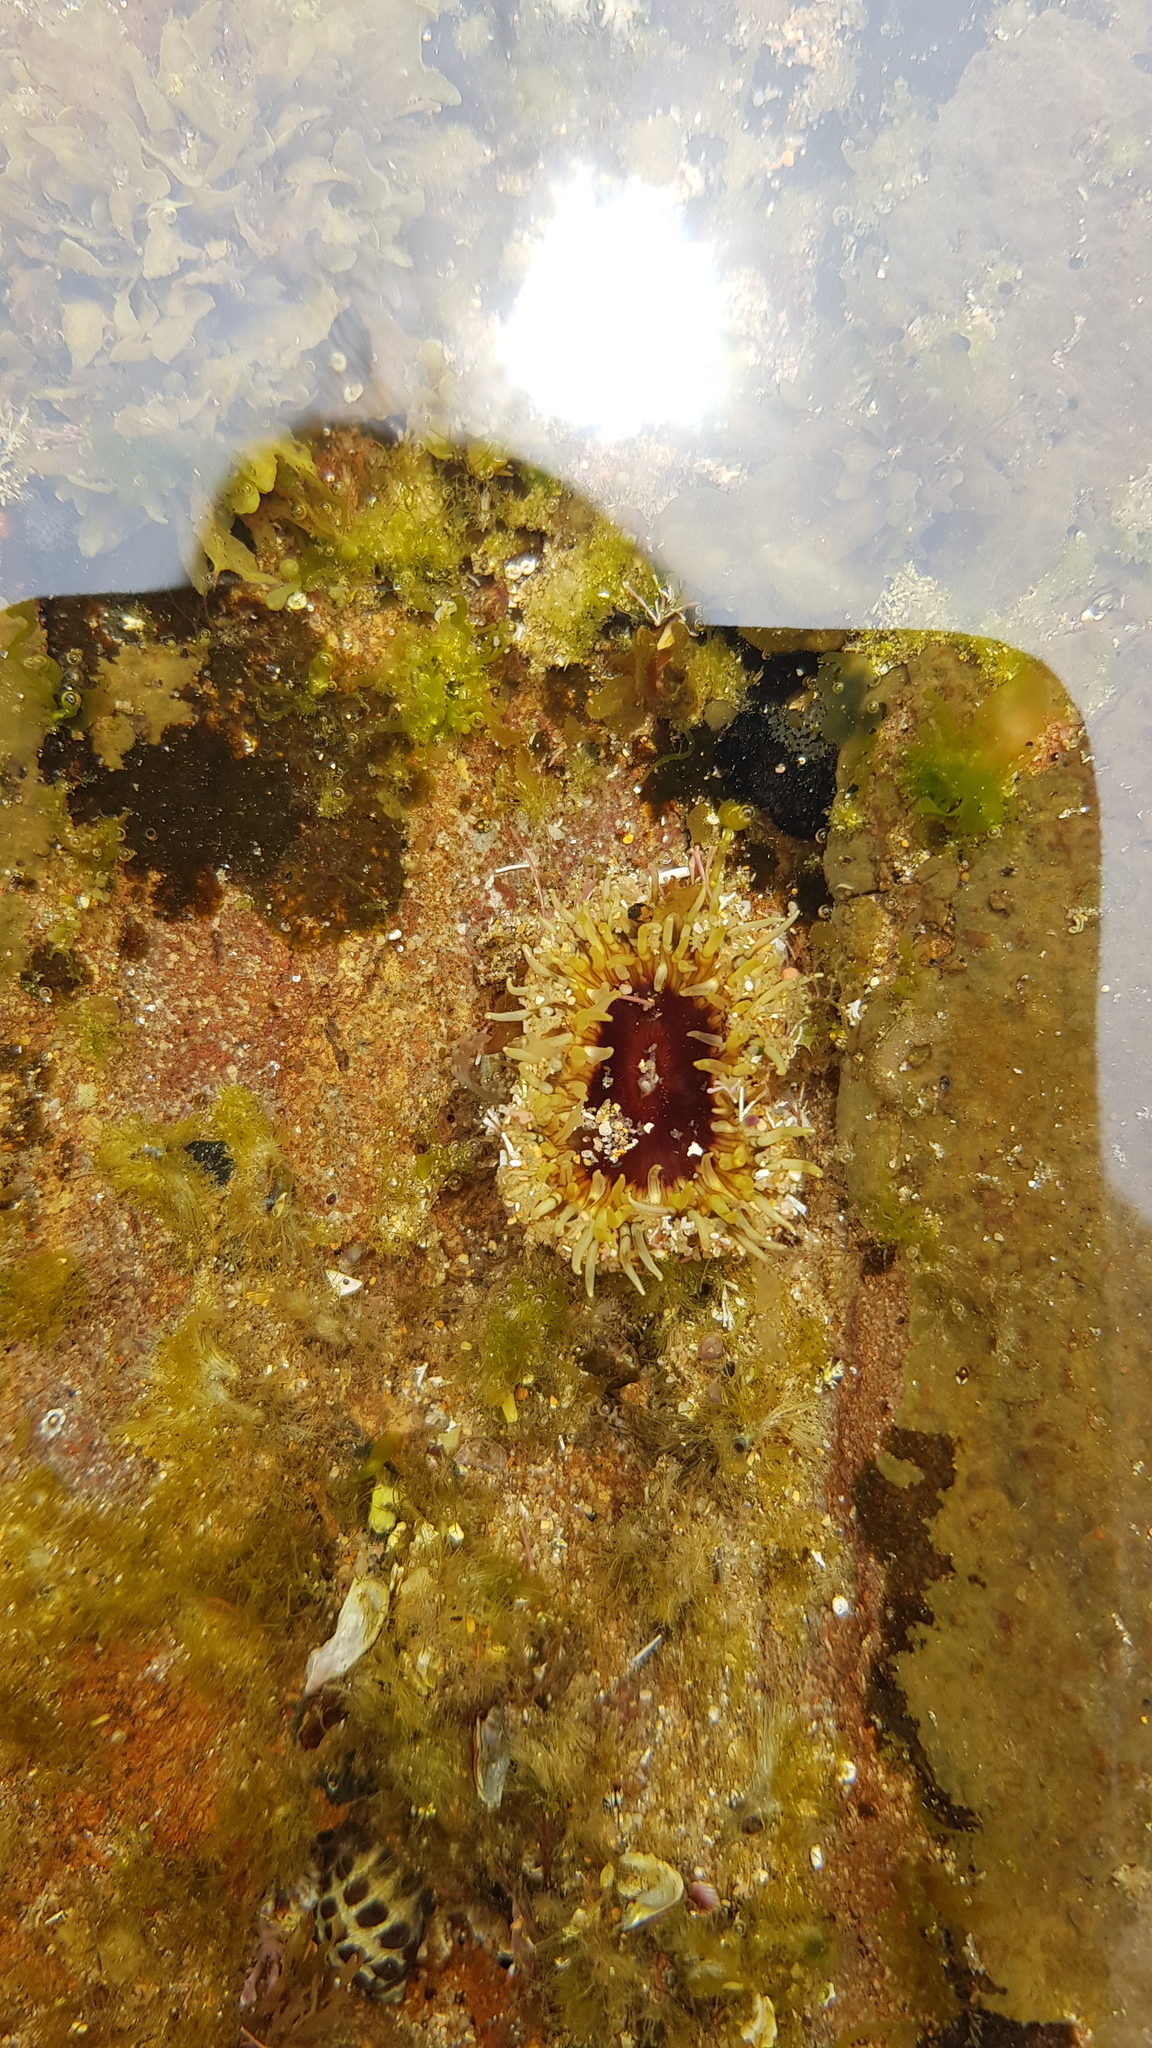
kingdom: Animalia
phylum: Cnidaria
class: Anthozoa
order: Actiniaria
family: Actiniidae
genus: Oulactis
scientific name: Oulactis muscosa
